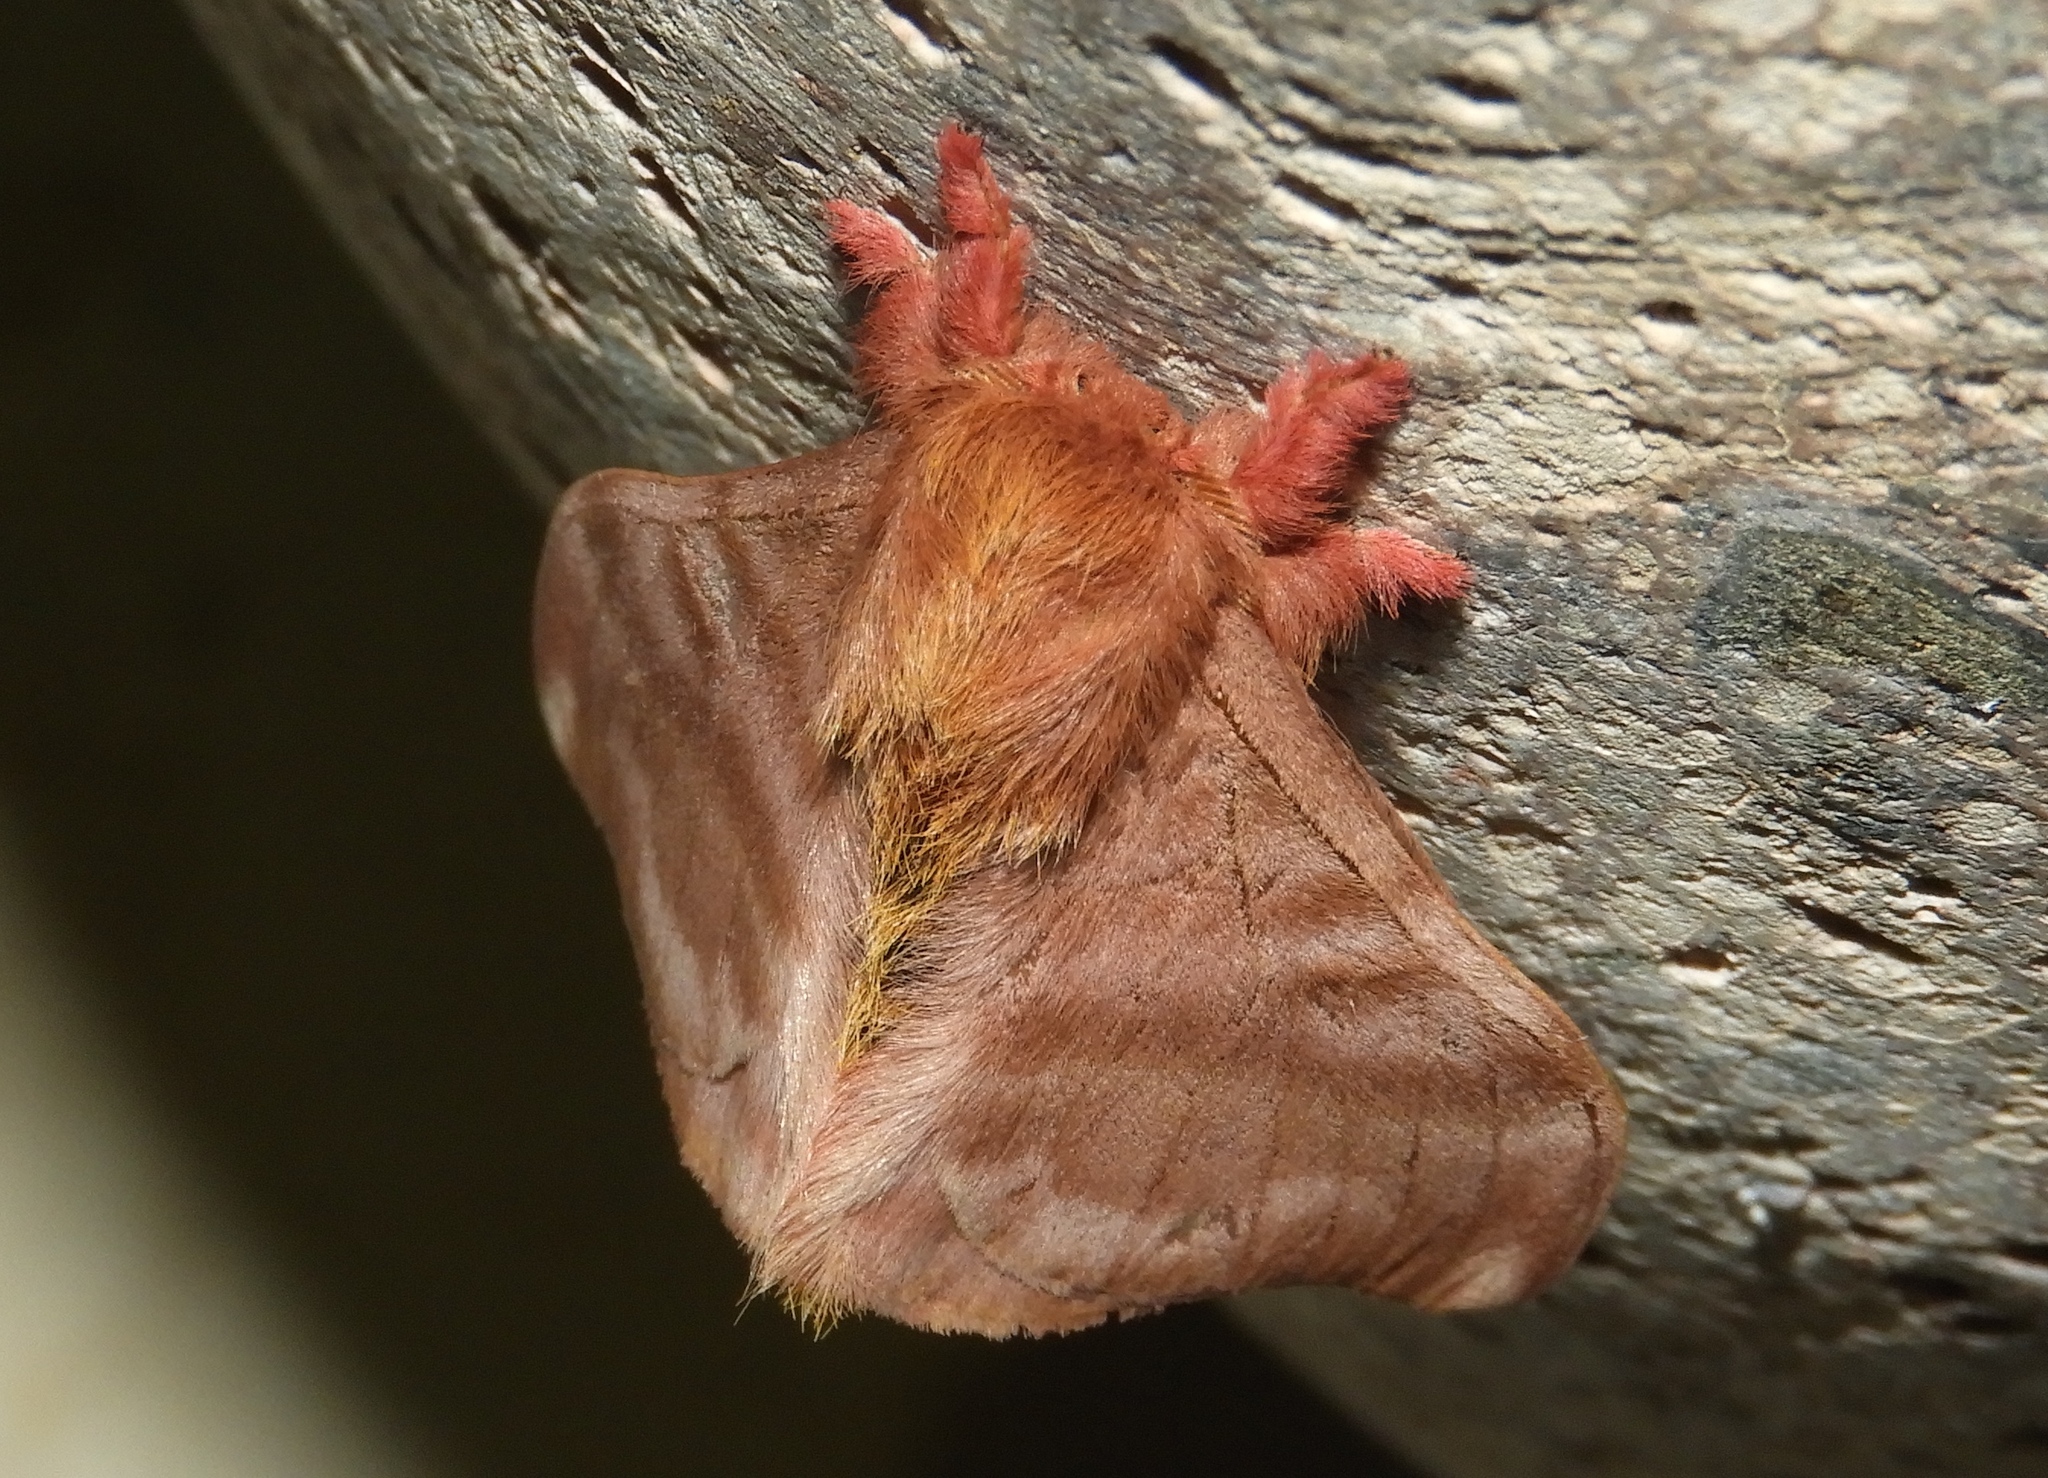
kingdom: Animalia
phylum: Arthropoda
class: Insecta
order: Lepidoptera
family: Saturniidae
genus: Hylesia
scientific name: Hylesia coinopus
